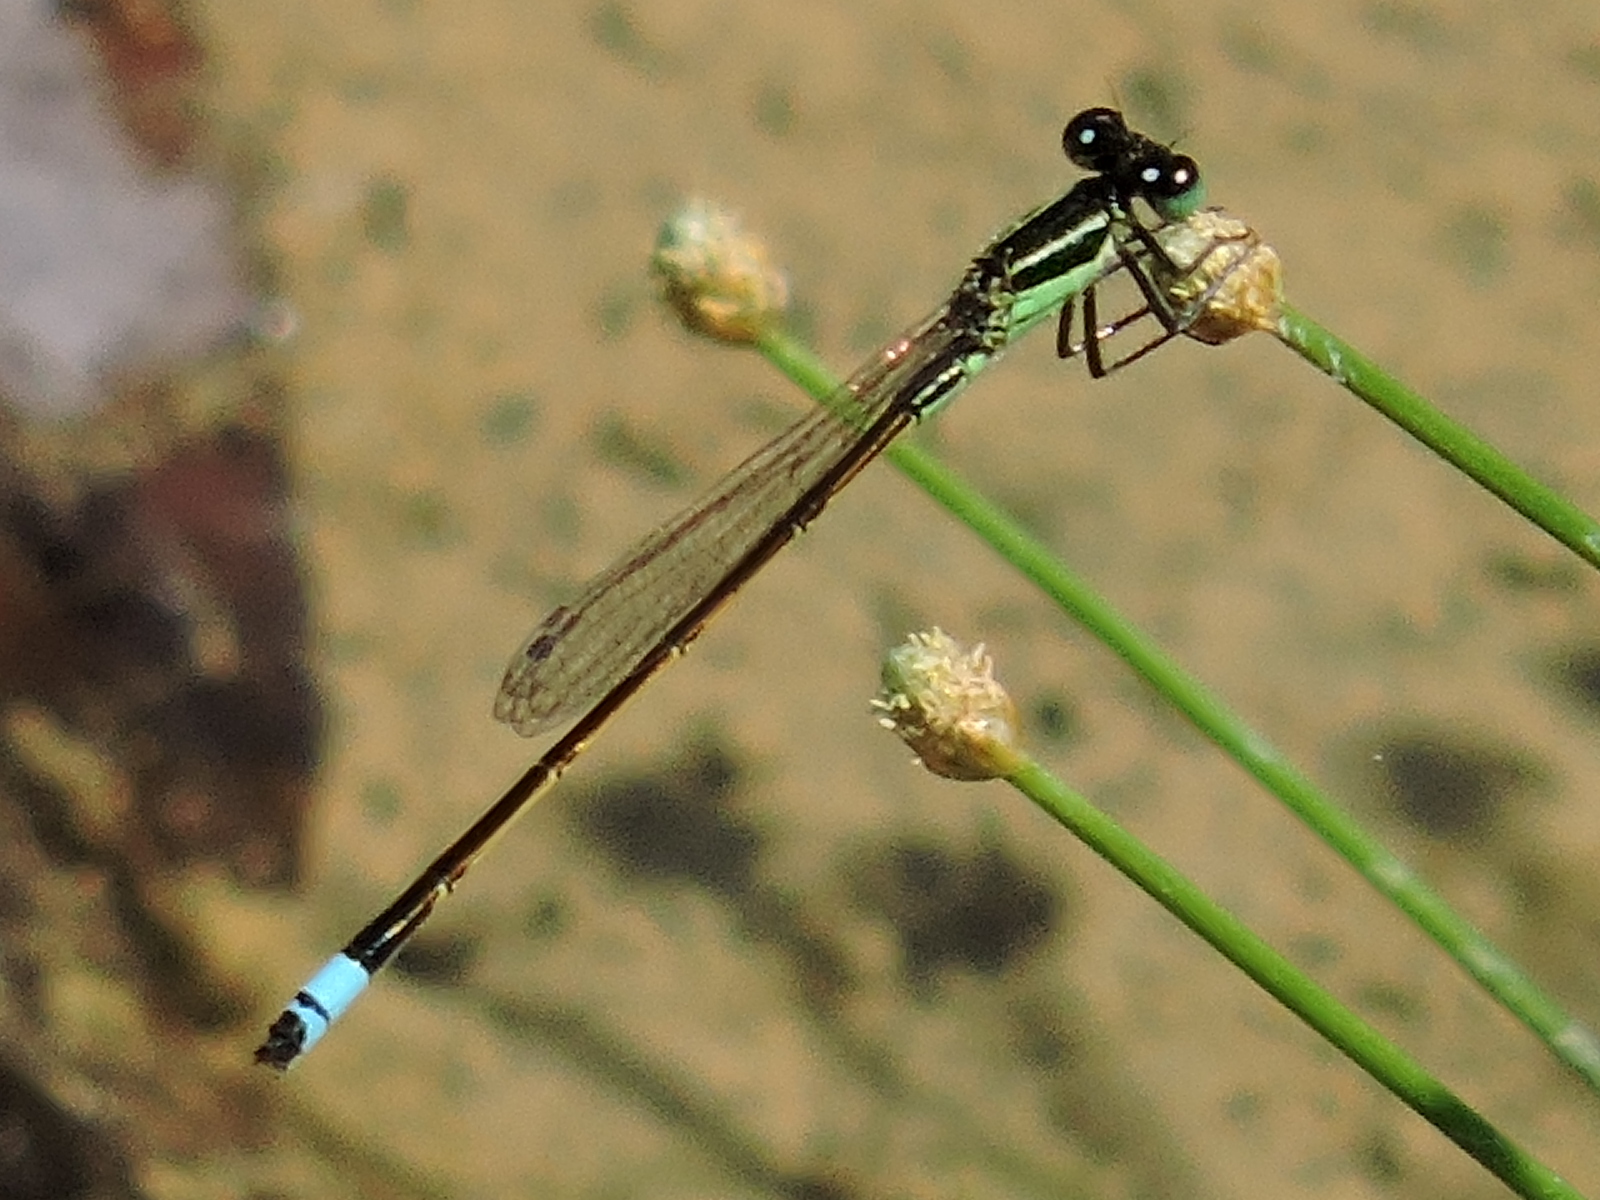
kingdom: Animalia
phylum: Arthropoda
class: Insecta
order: Odonata
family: Coenagrionidae
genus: Ischnura
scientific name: Ischnura ramburii
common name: Rambur's forktail
